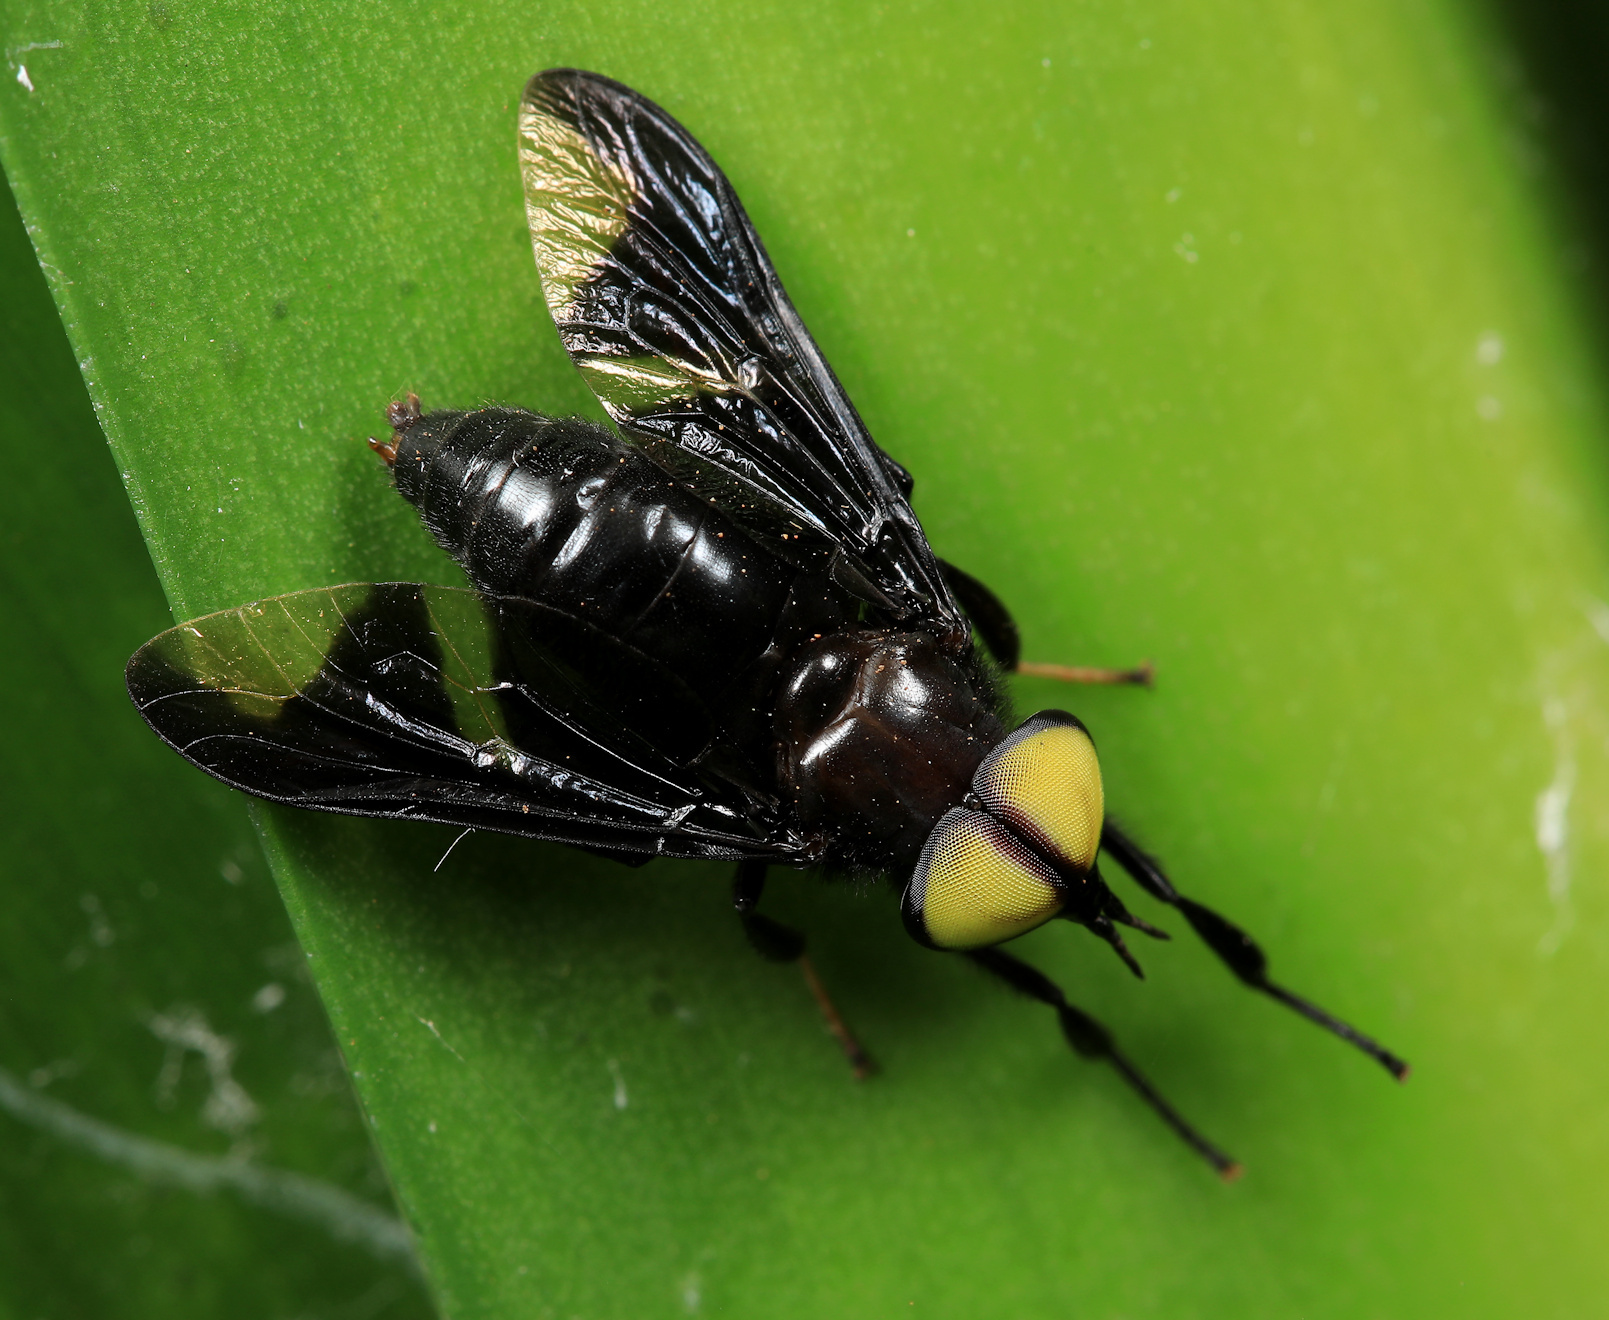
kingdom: Animalia
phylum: Arthropoda
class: Insecta
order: Diptera
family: Tabanidae
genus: Thriambeutes
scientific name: Thriambeutes v-album
